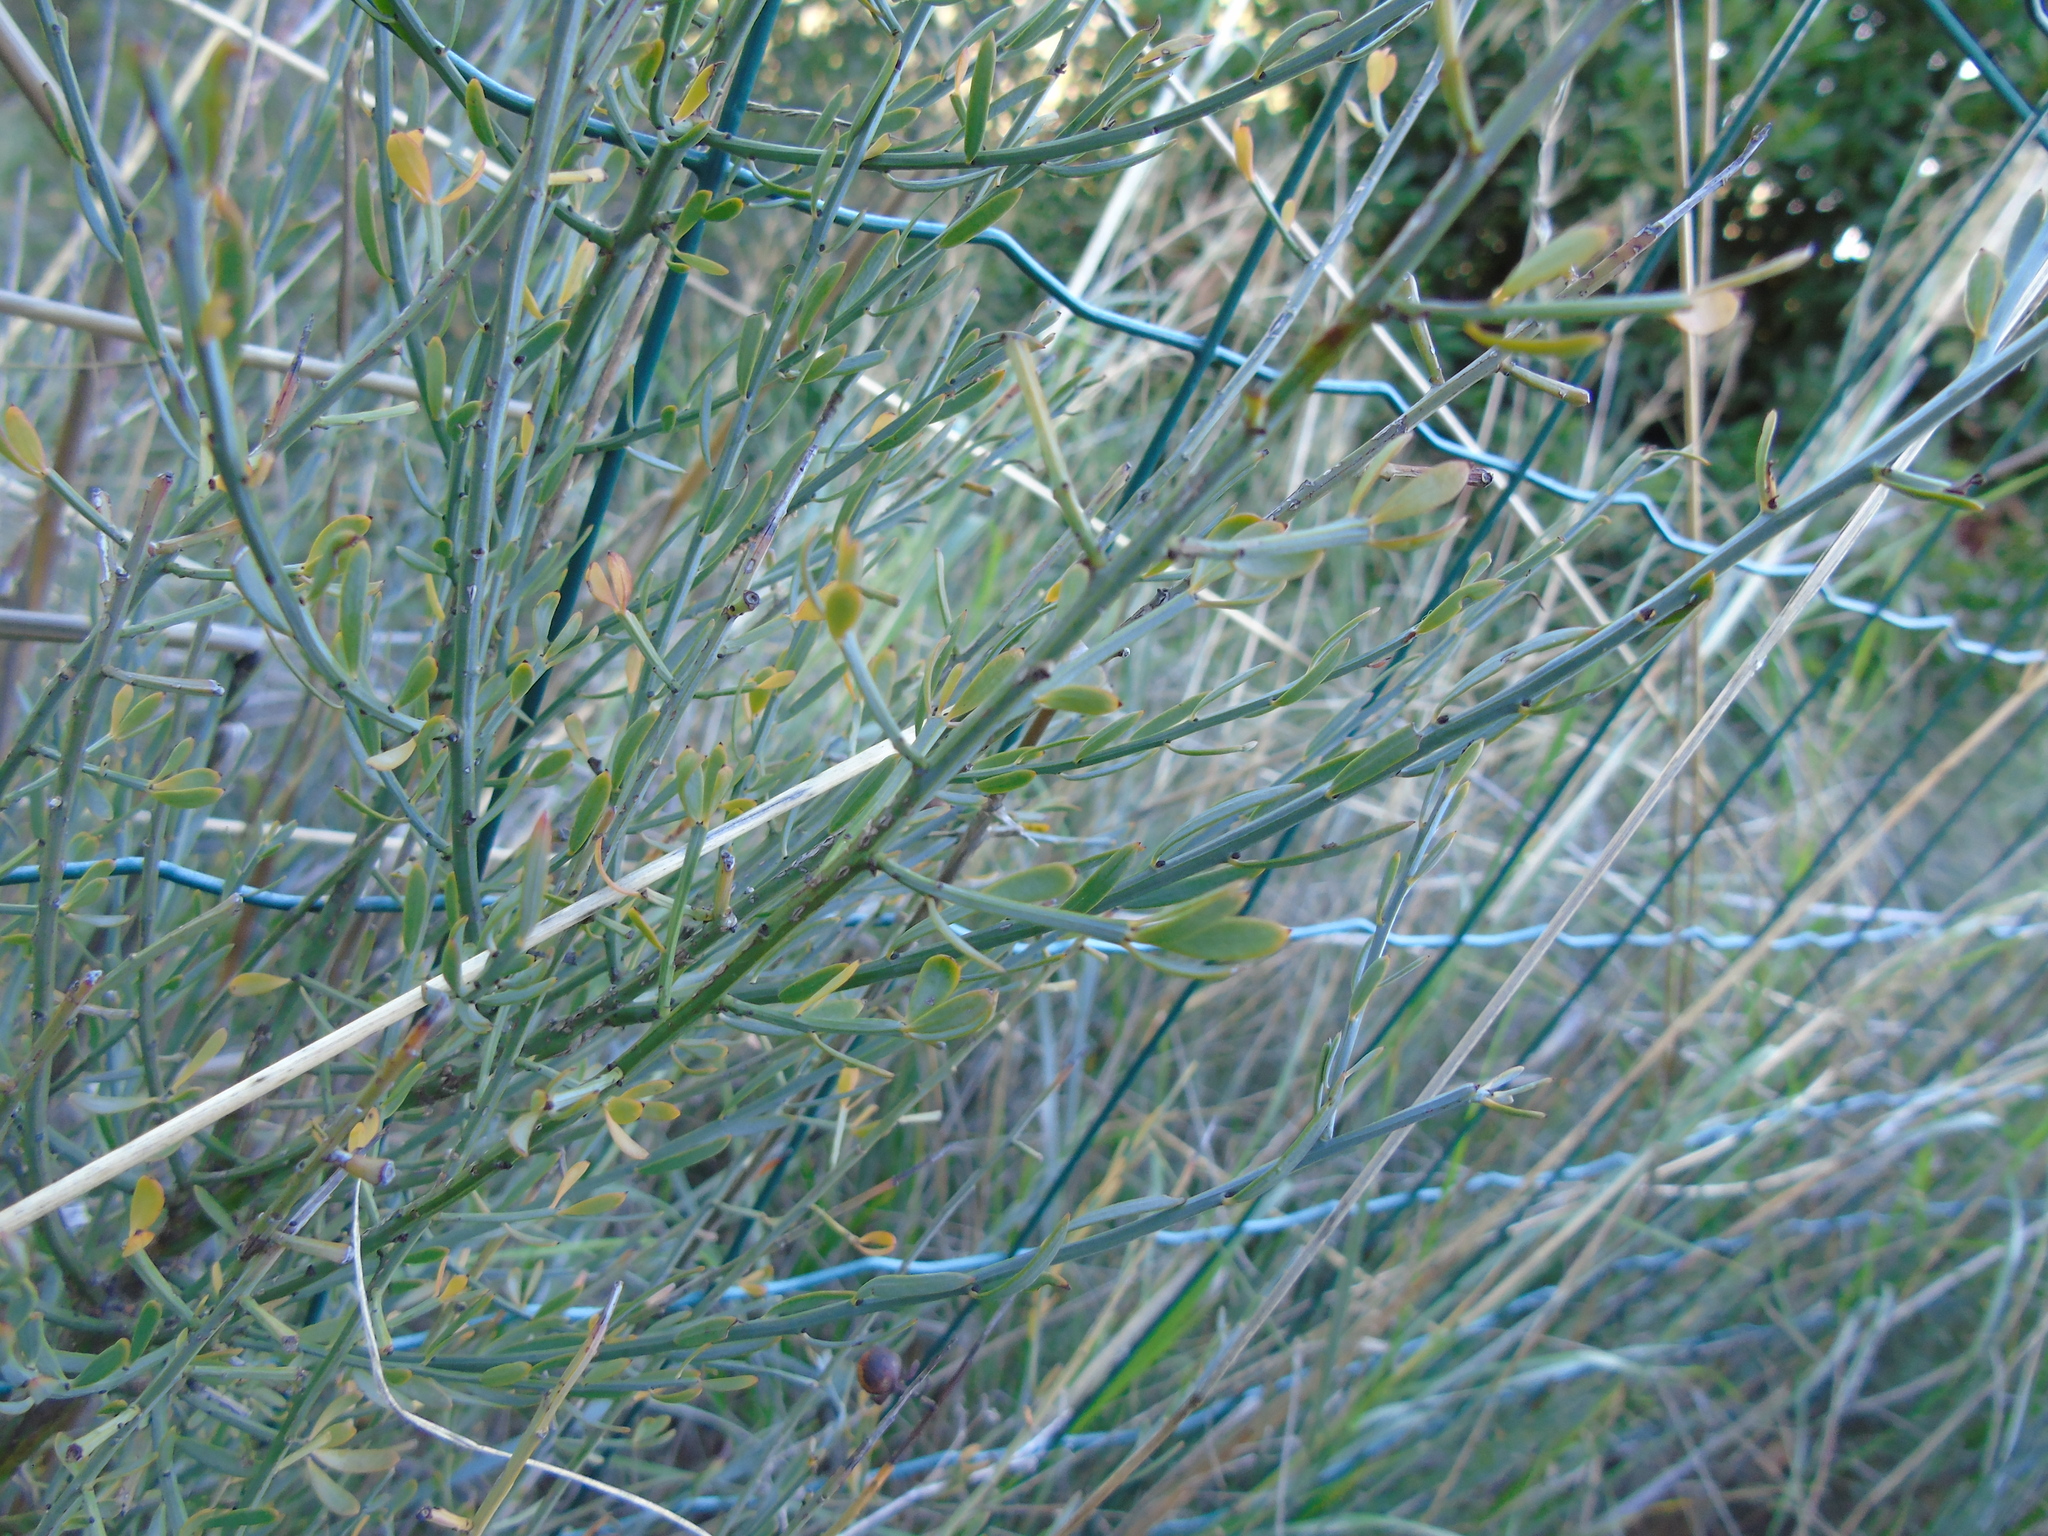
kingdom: Plantae
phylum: Tracheophyta
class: Magnoliopsida
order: Santalales
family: Santalaceae
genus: Osyris
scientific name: Osyris alba
